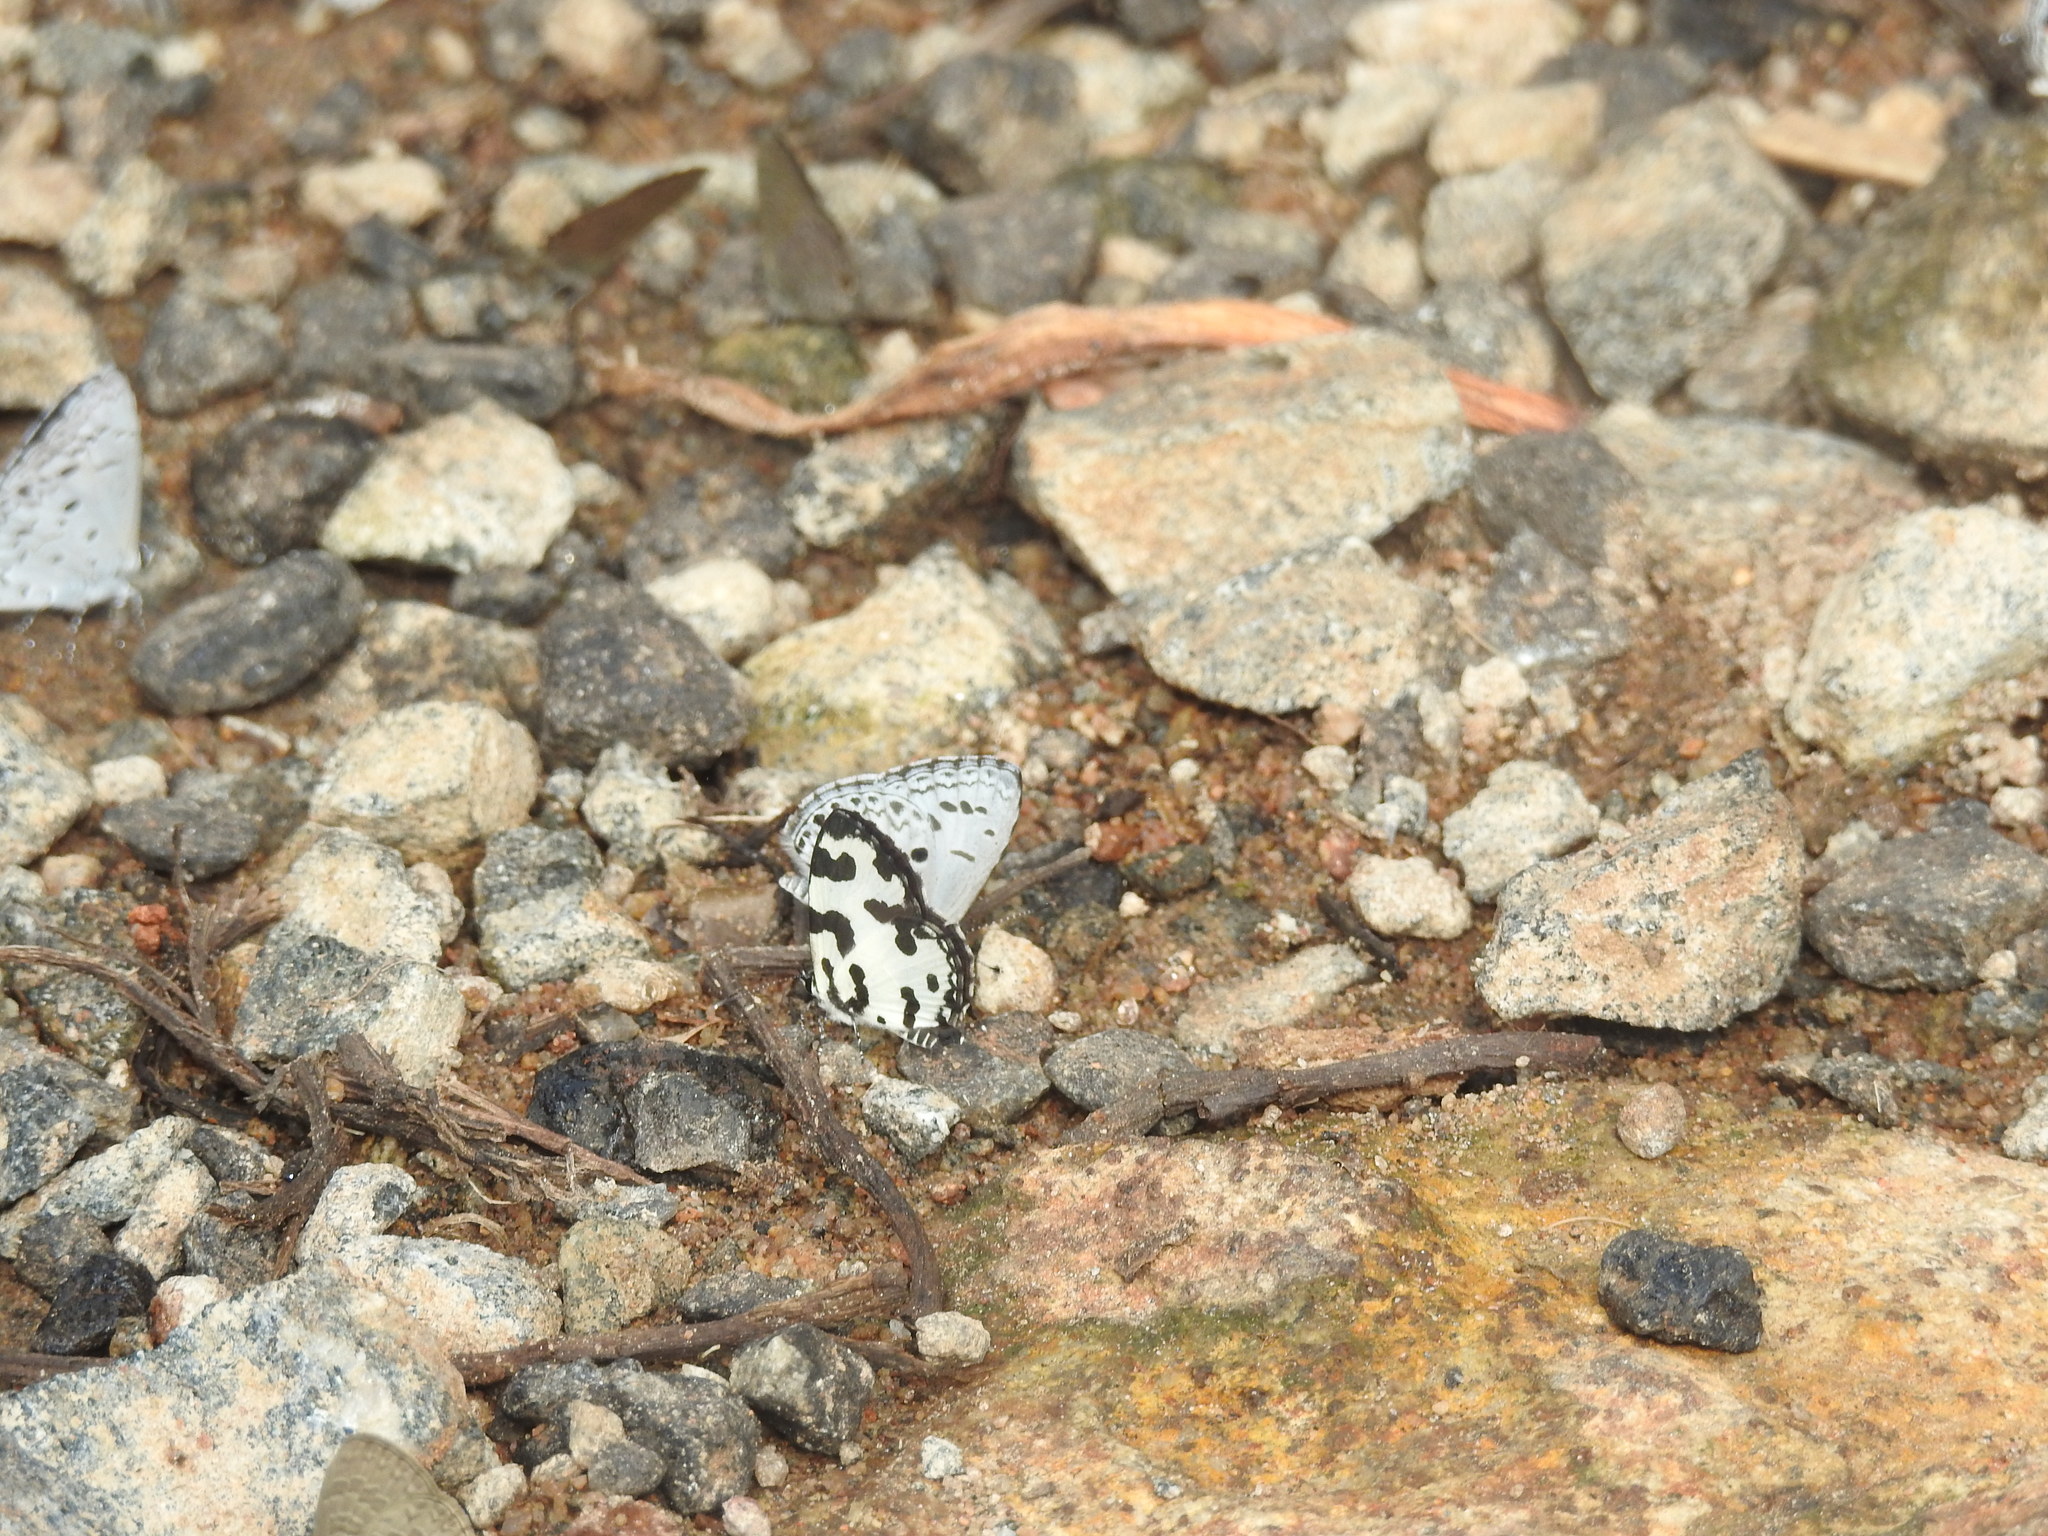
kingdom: Animalia
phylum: Arthropoda
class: Insecta
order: Lepidoptera
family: Lycaenidae
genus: Caleta
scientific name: Caleta decidia
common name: Angled pierrot
